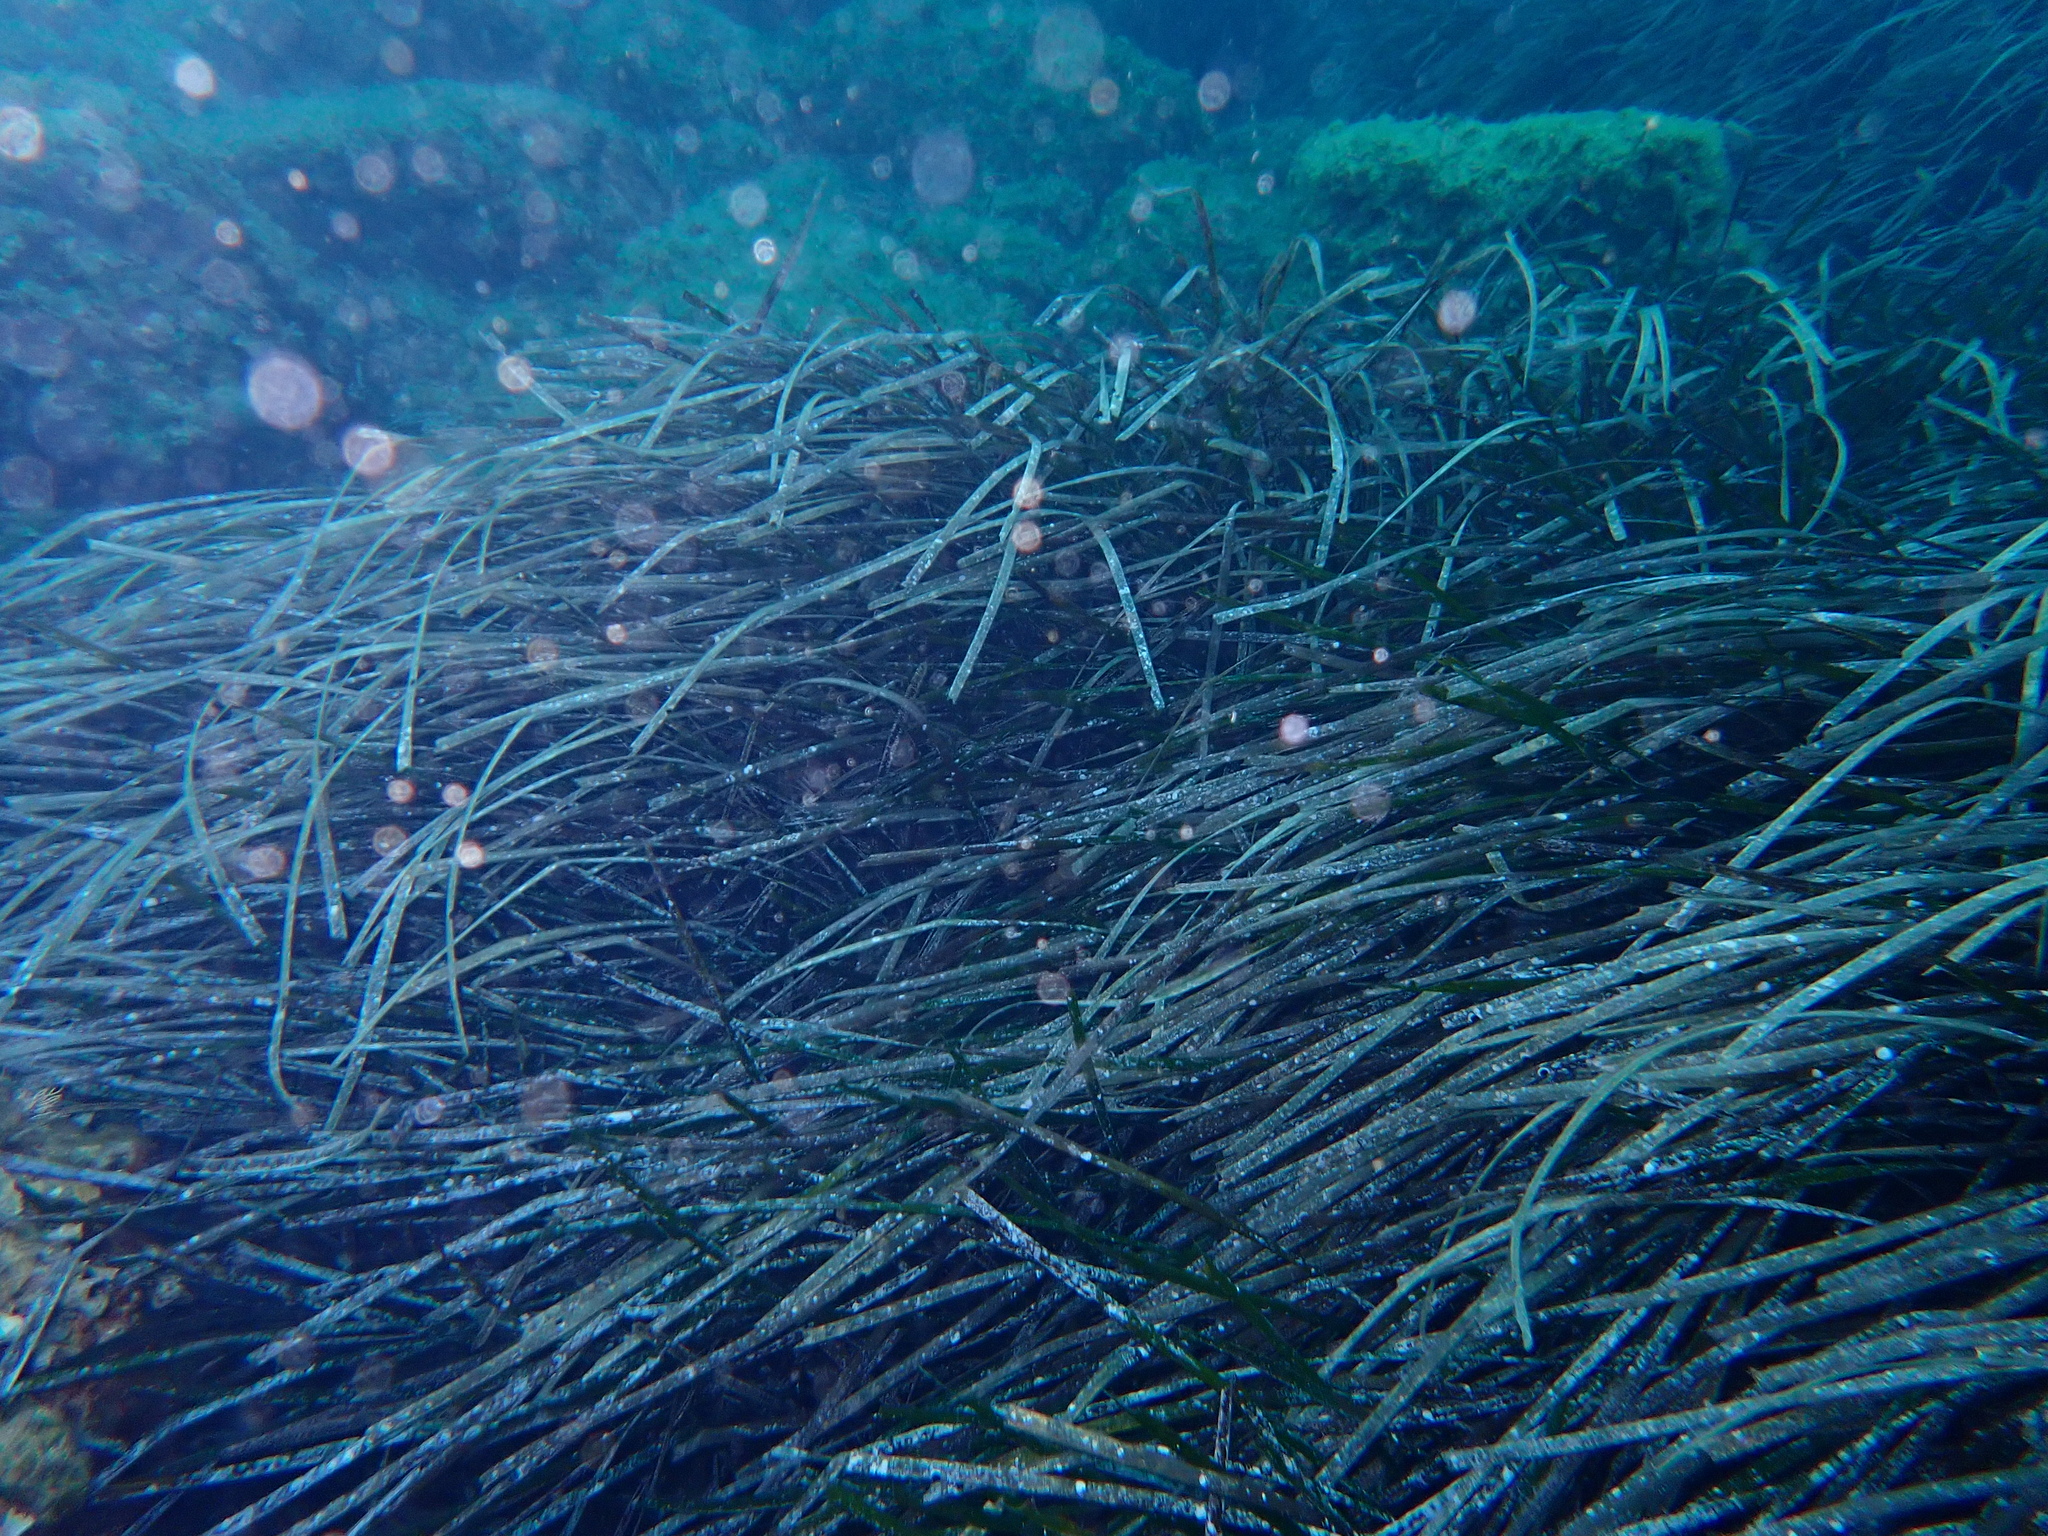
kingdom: Plantae
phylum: Tracheophyta
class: Liliopsida
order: Alismatales
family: Posidoniaceae
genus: Posidonia
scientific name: Posidonia oceanica
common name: Mediterranean tapeweed
